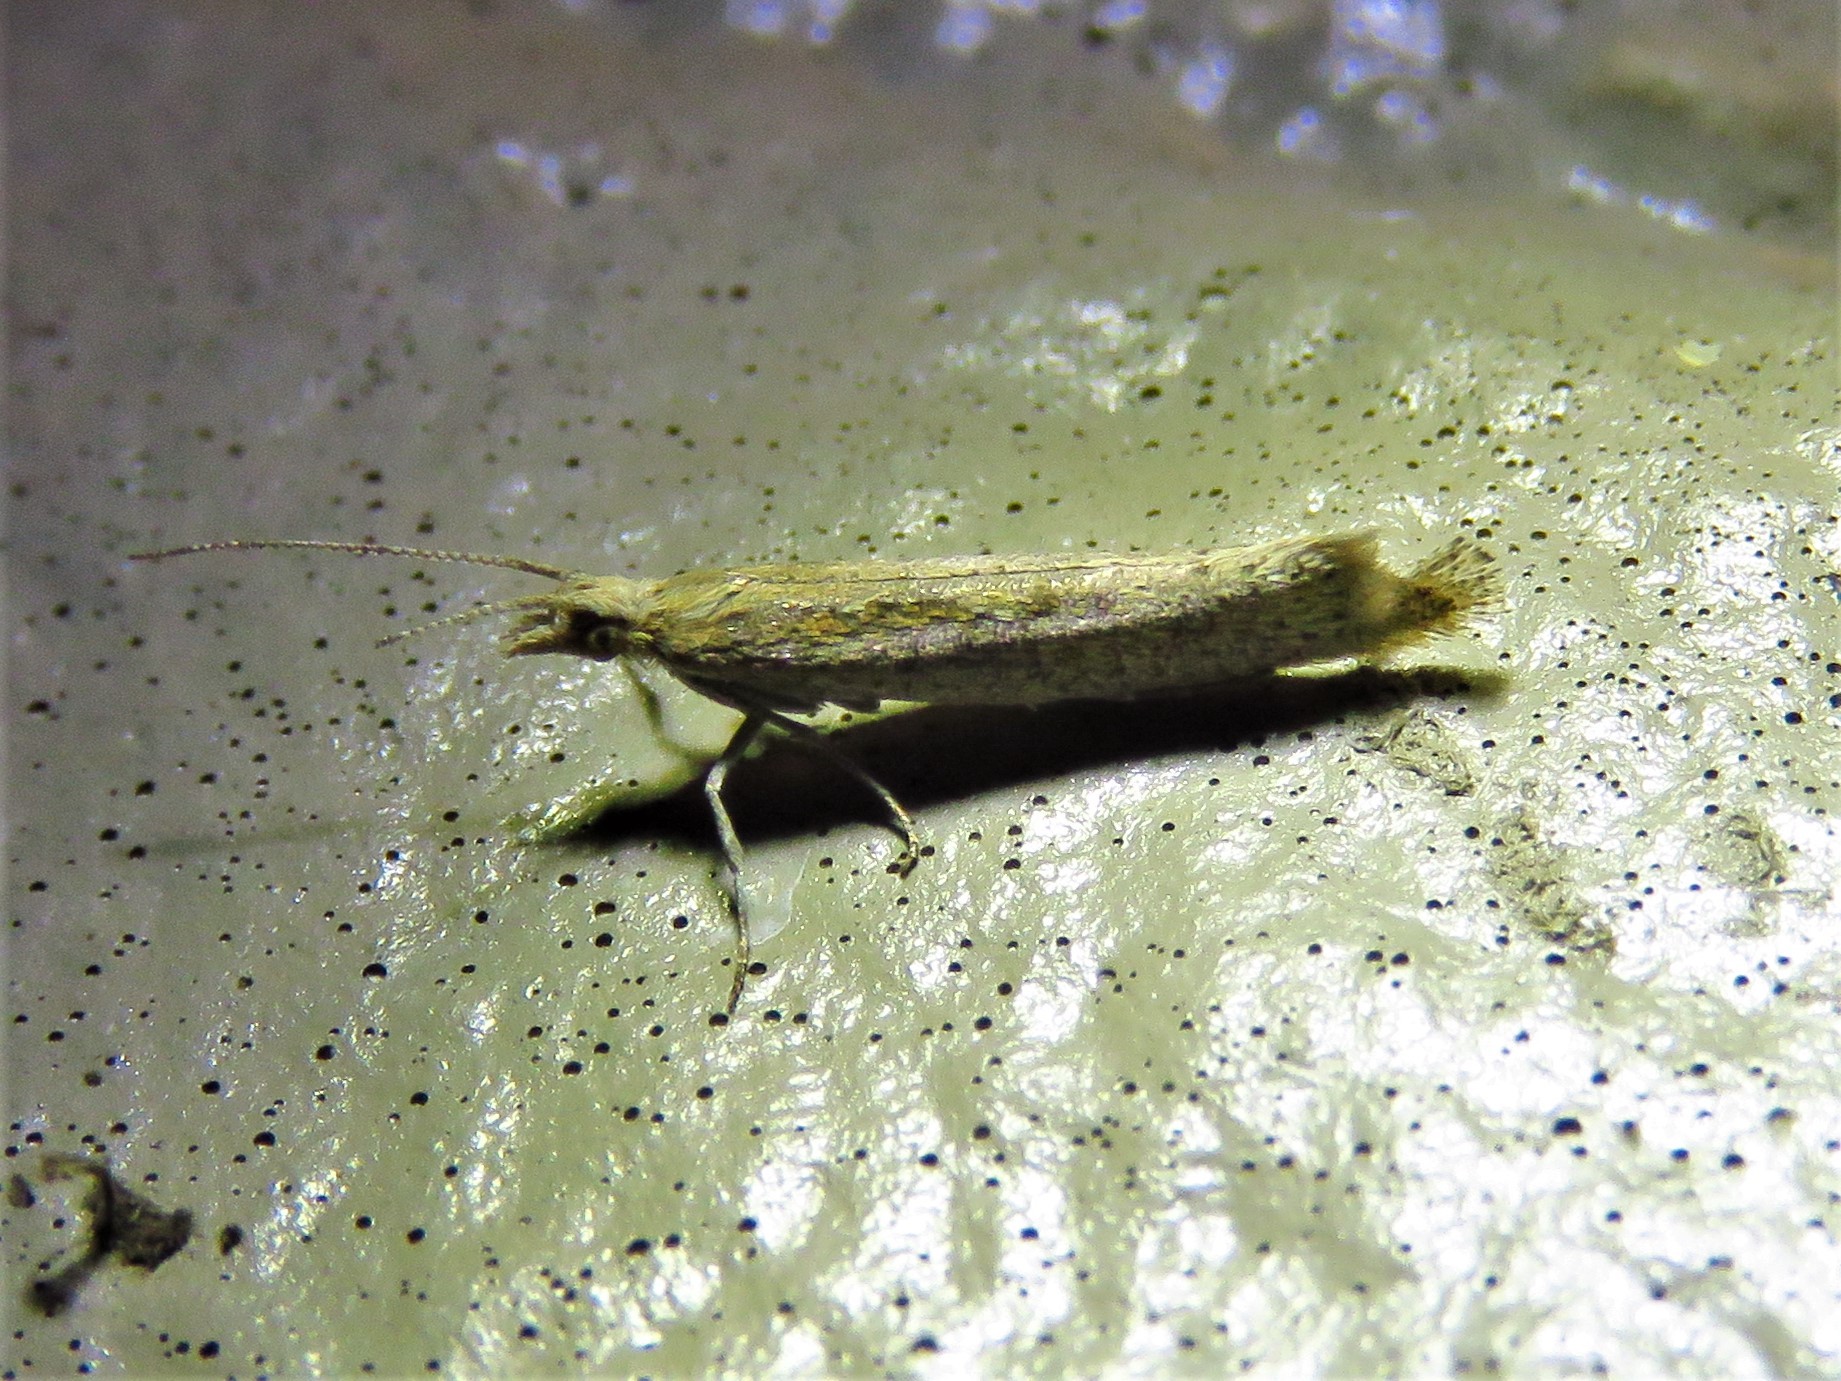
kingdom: Animalia
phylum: Arthropoda
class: Insecta
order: Lepidoptera
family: Plutellidae
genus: Plutella
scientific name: Plutella xylostella
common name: Diamond-back moth
